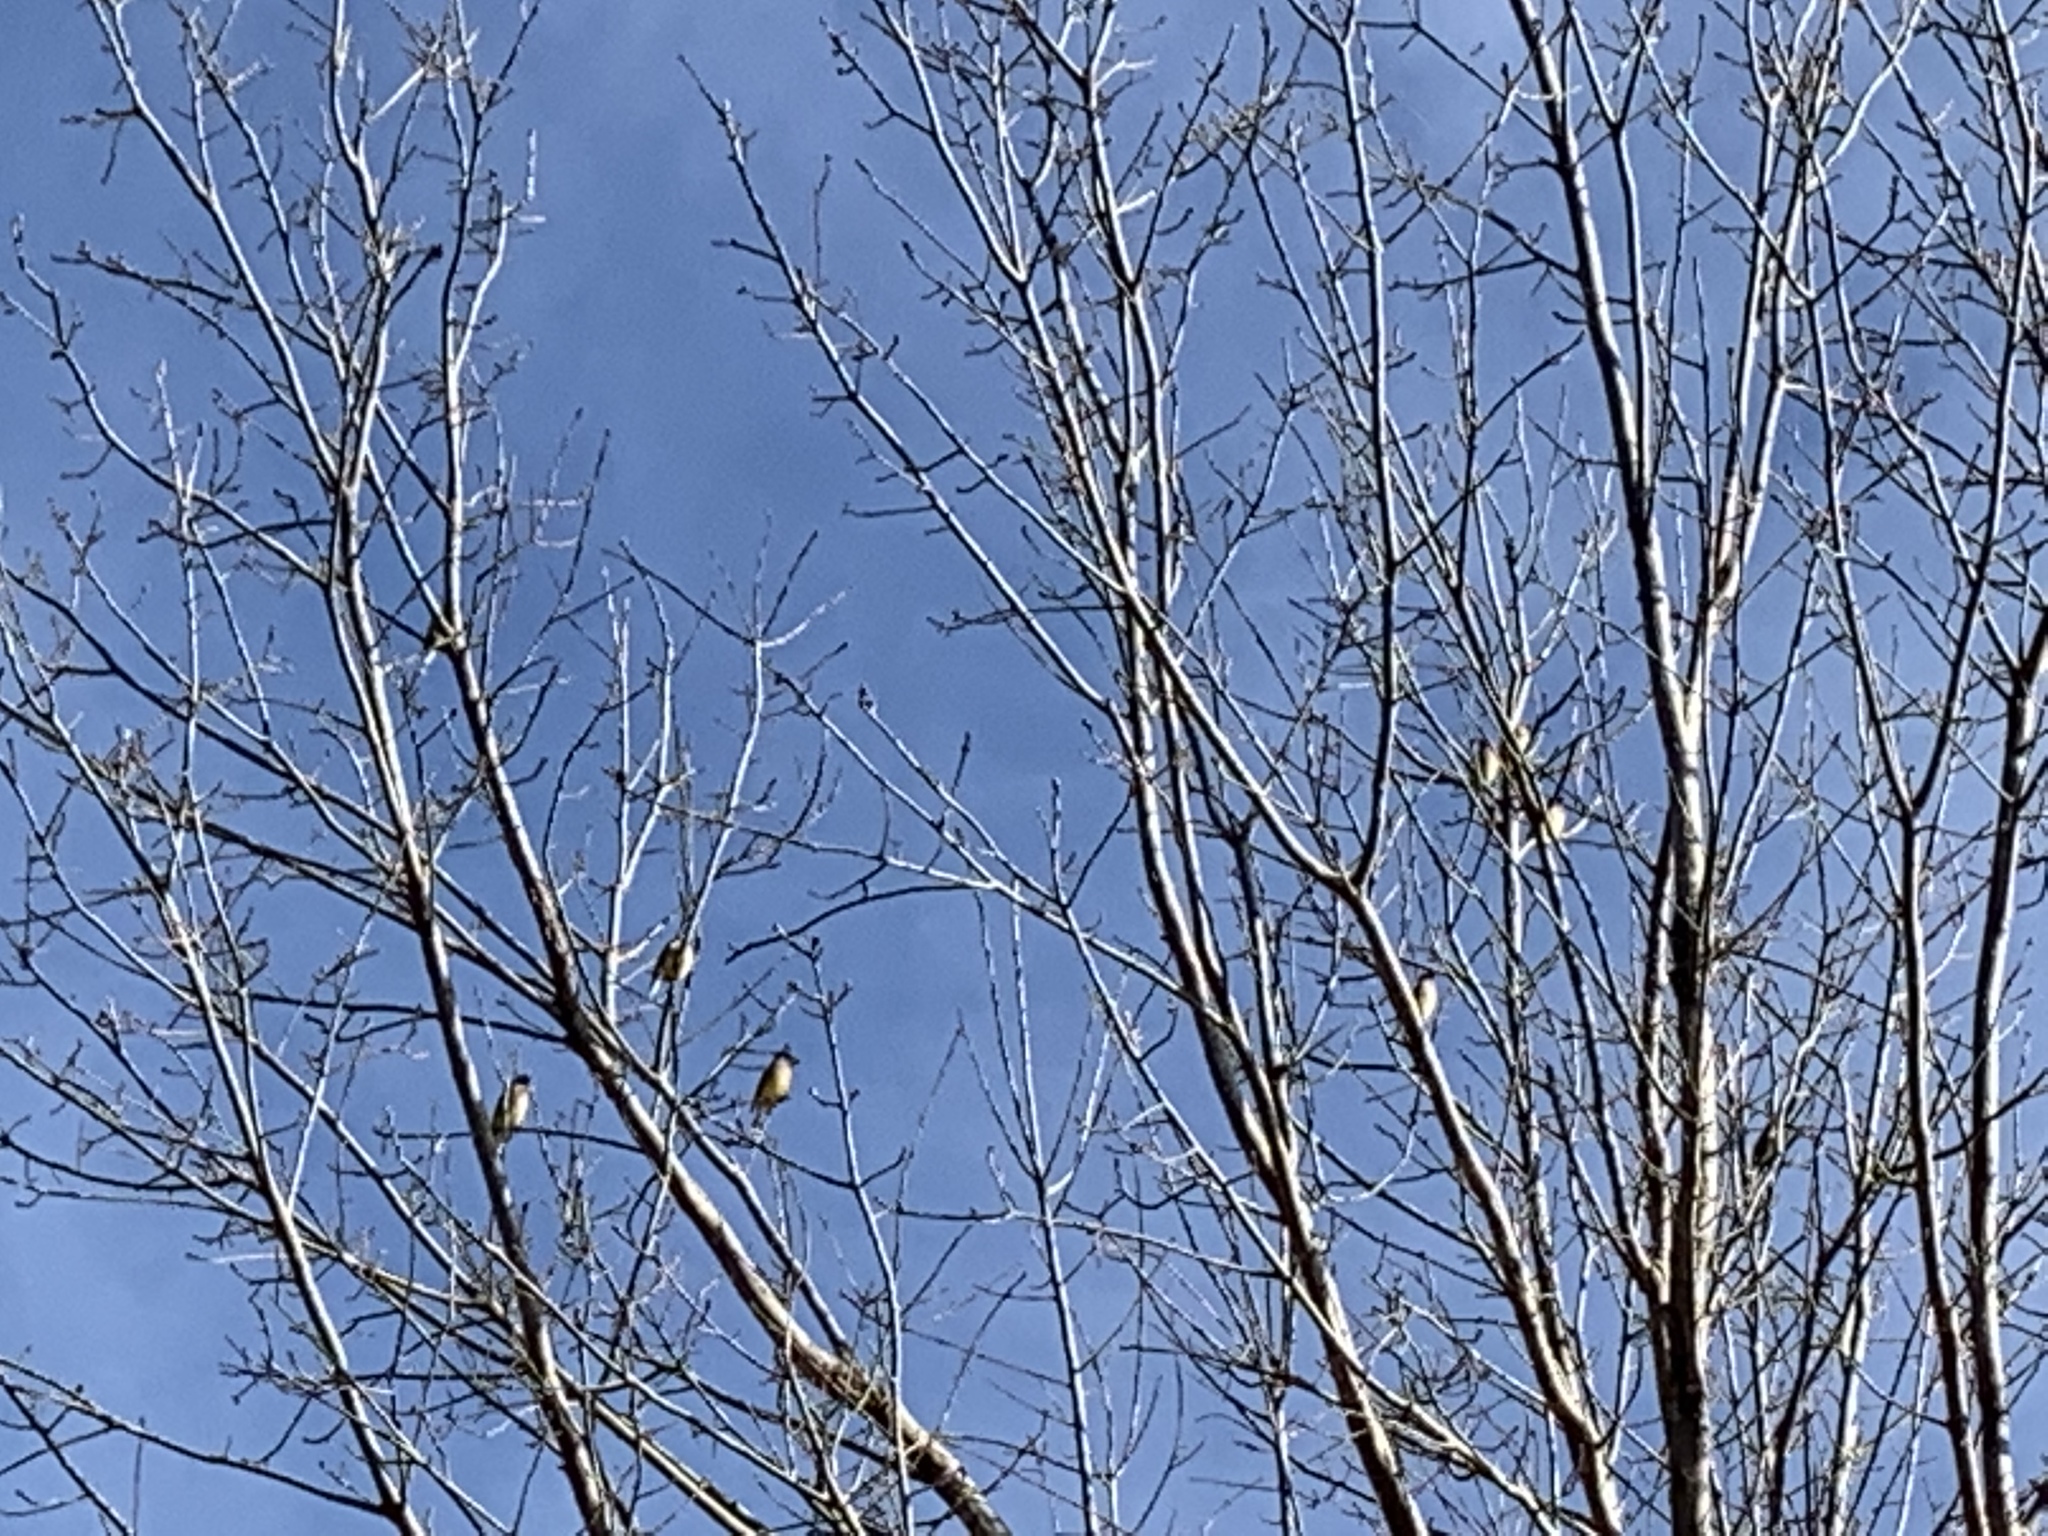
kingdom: Animalia
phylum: Chordata
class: Aves
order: Passeriformes
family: Bombycillidae
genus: Bombycilla
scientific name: Bombycilla cedrorum
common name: Cedar waxwing
